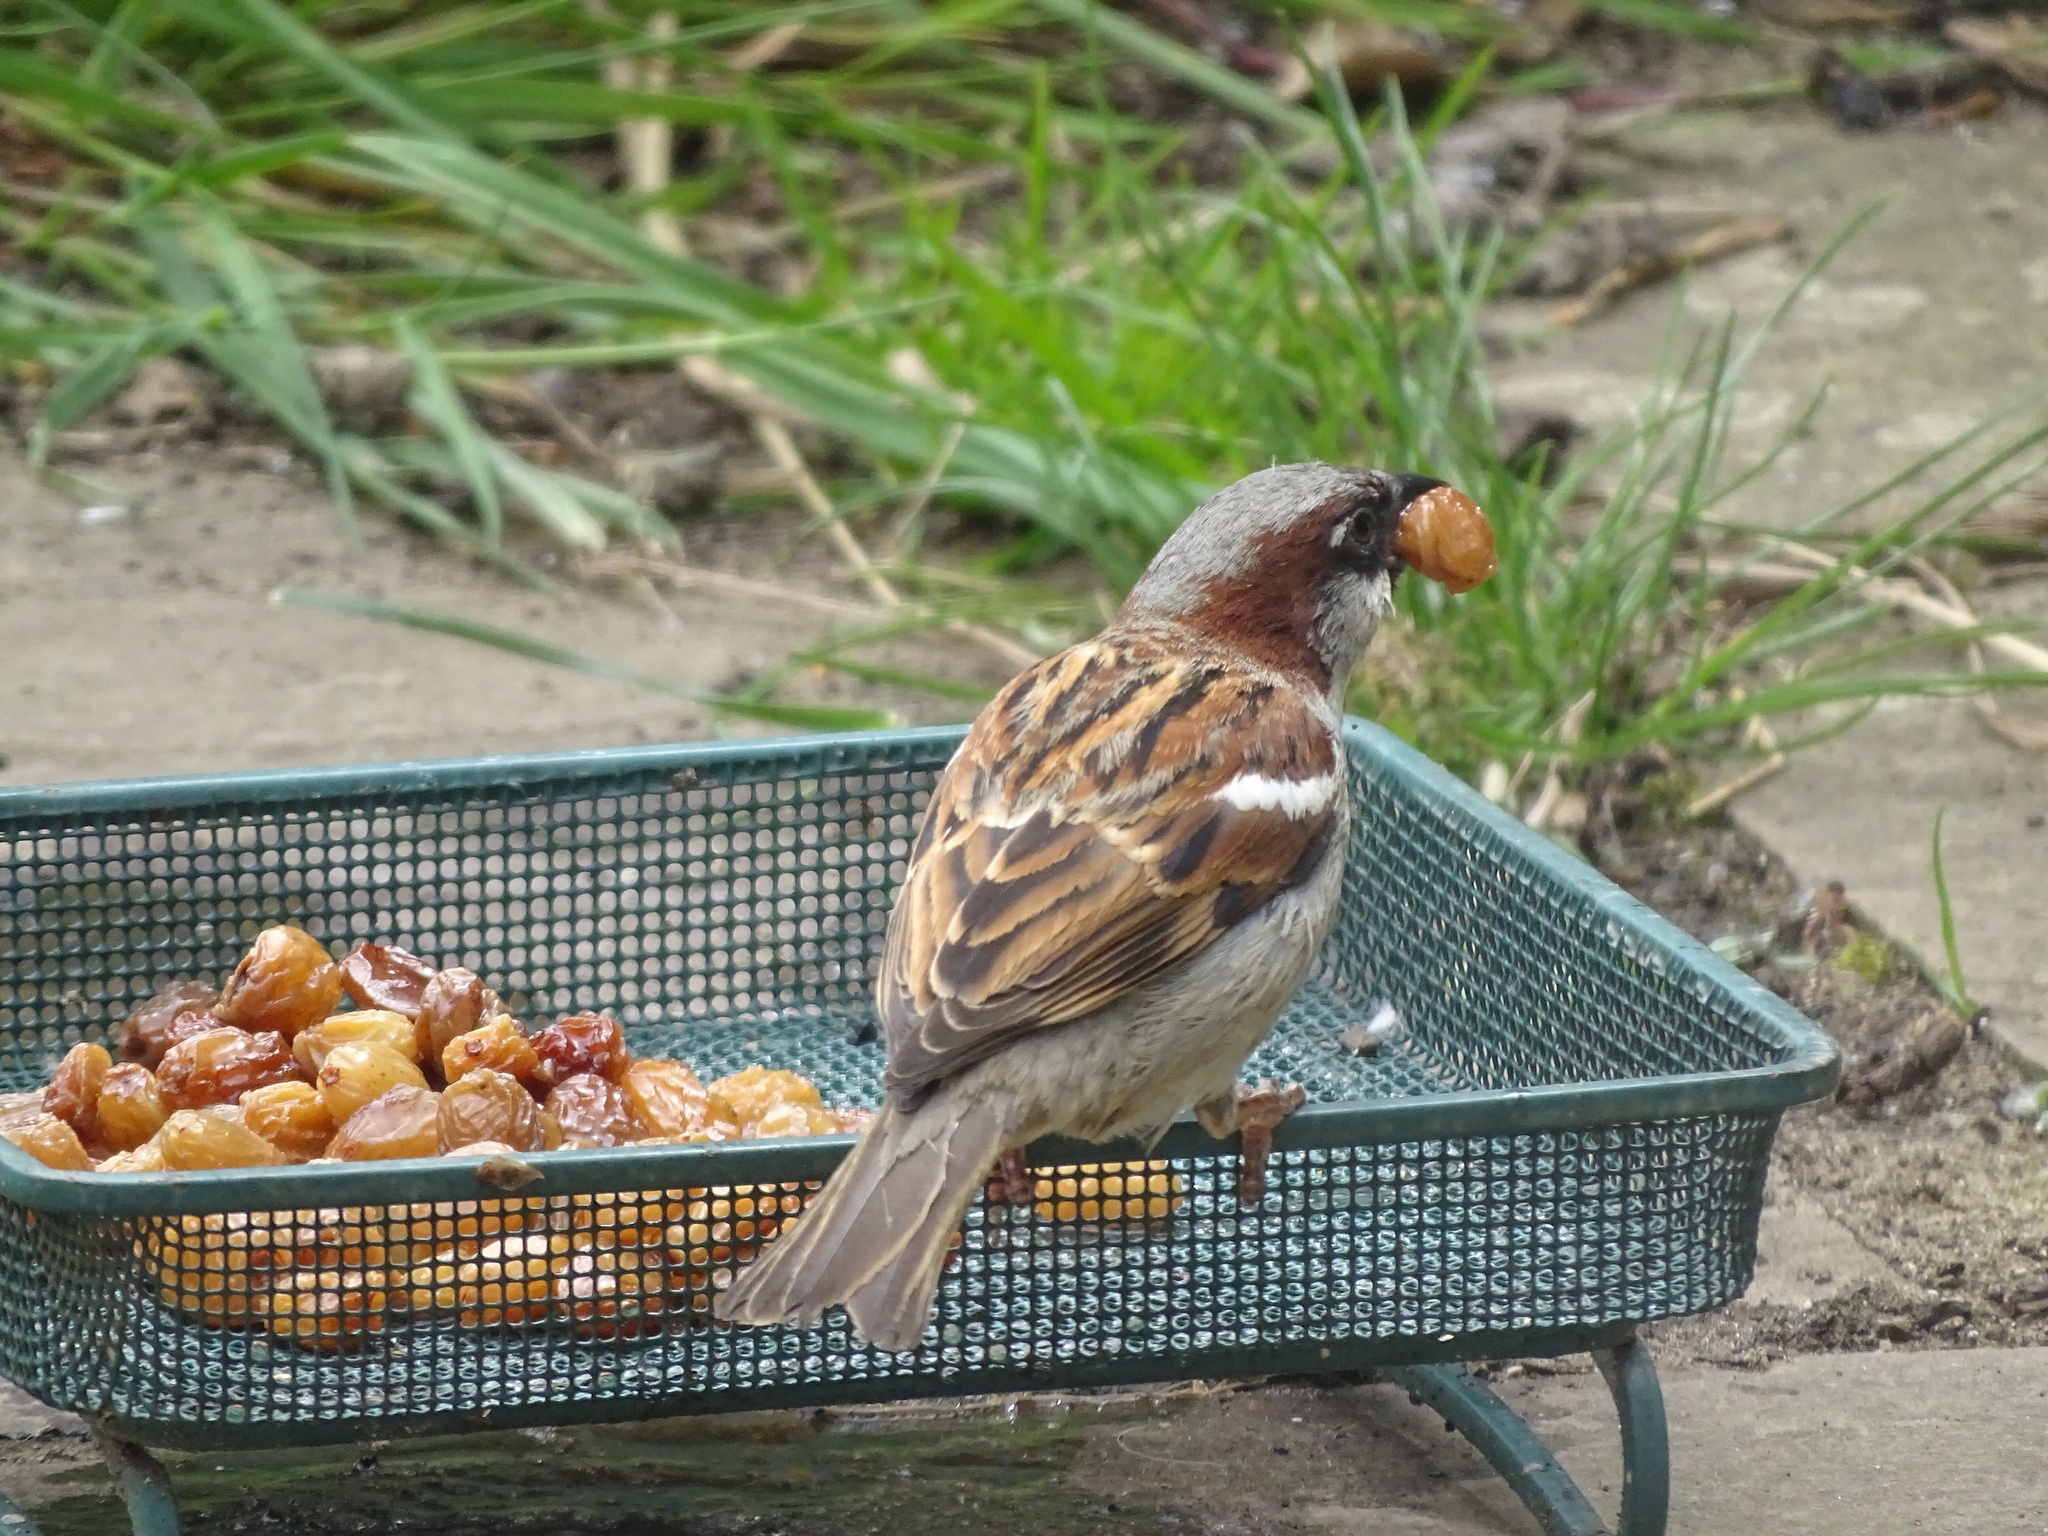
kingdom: Animalia
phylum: Chordata
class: Aves
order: Passeriformes
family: Passeridae
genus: Passer
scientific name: Passer domesticus
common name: House sparrow
